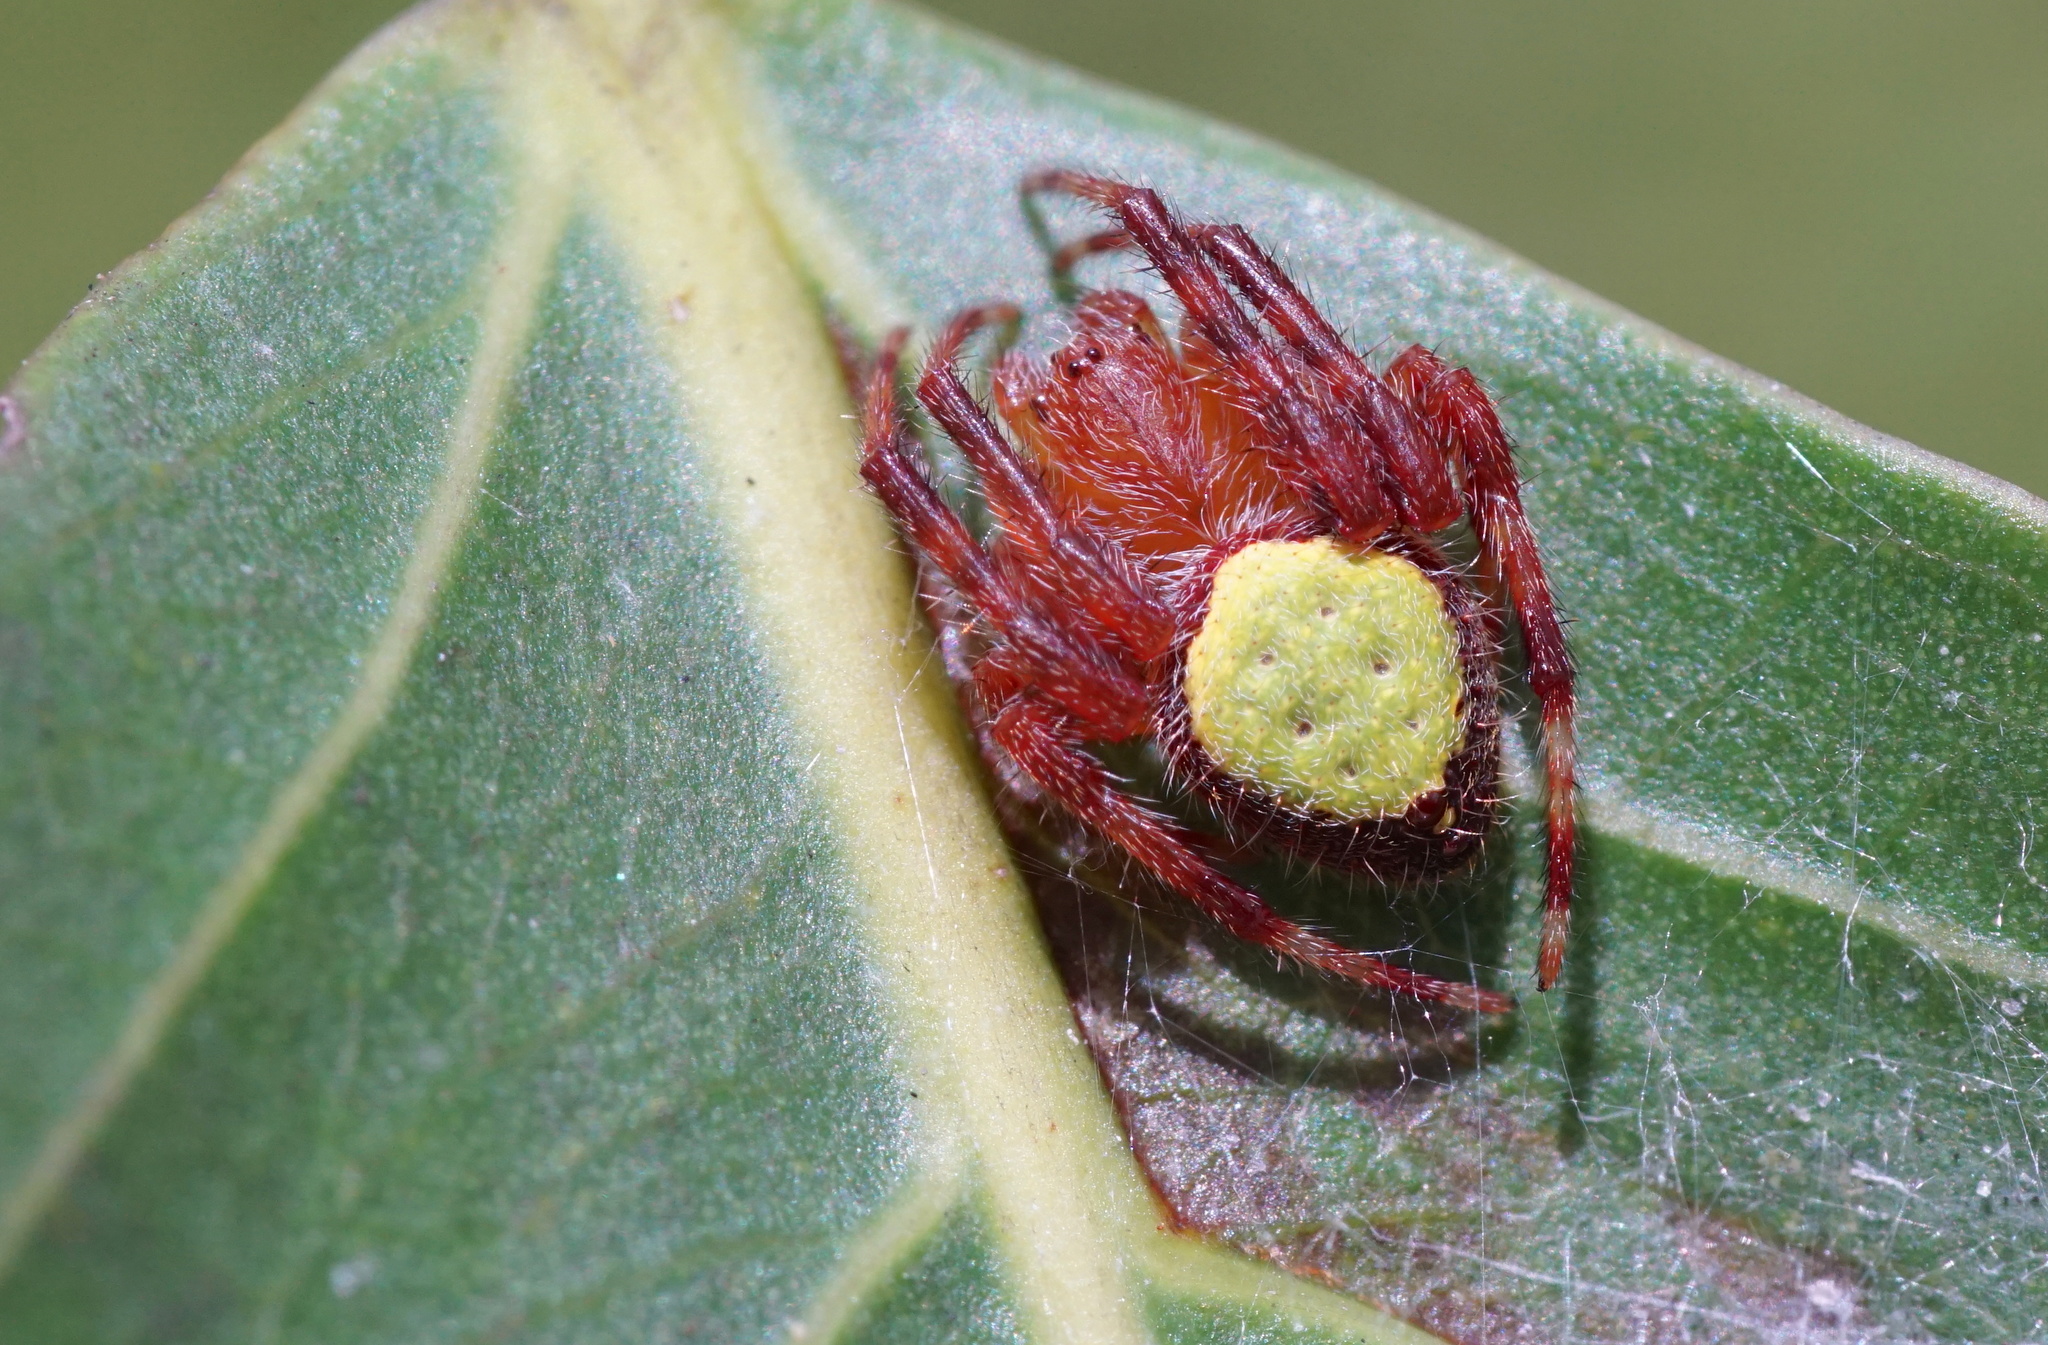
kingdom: Animalia
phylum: Arthropoda
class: Arachnida
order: Araneae
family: Araneidae
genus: Eriophora
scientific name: Eriophora ravilla
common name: Orb weavers
